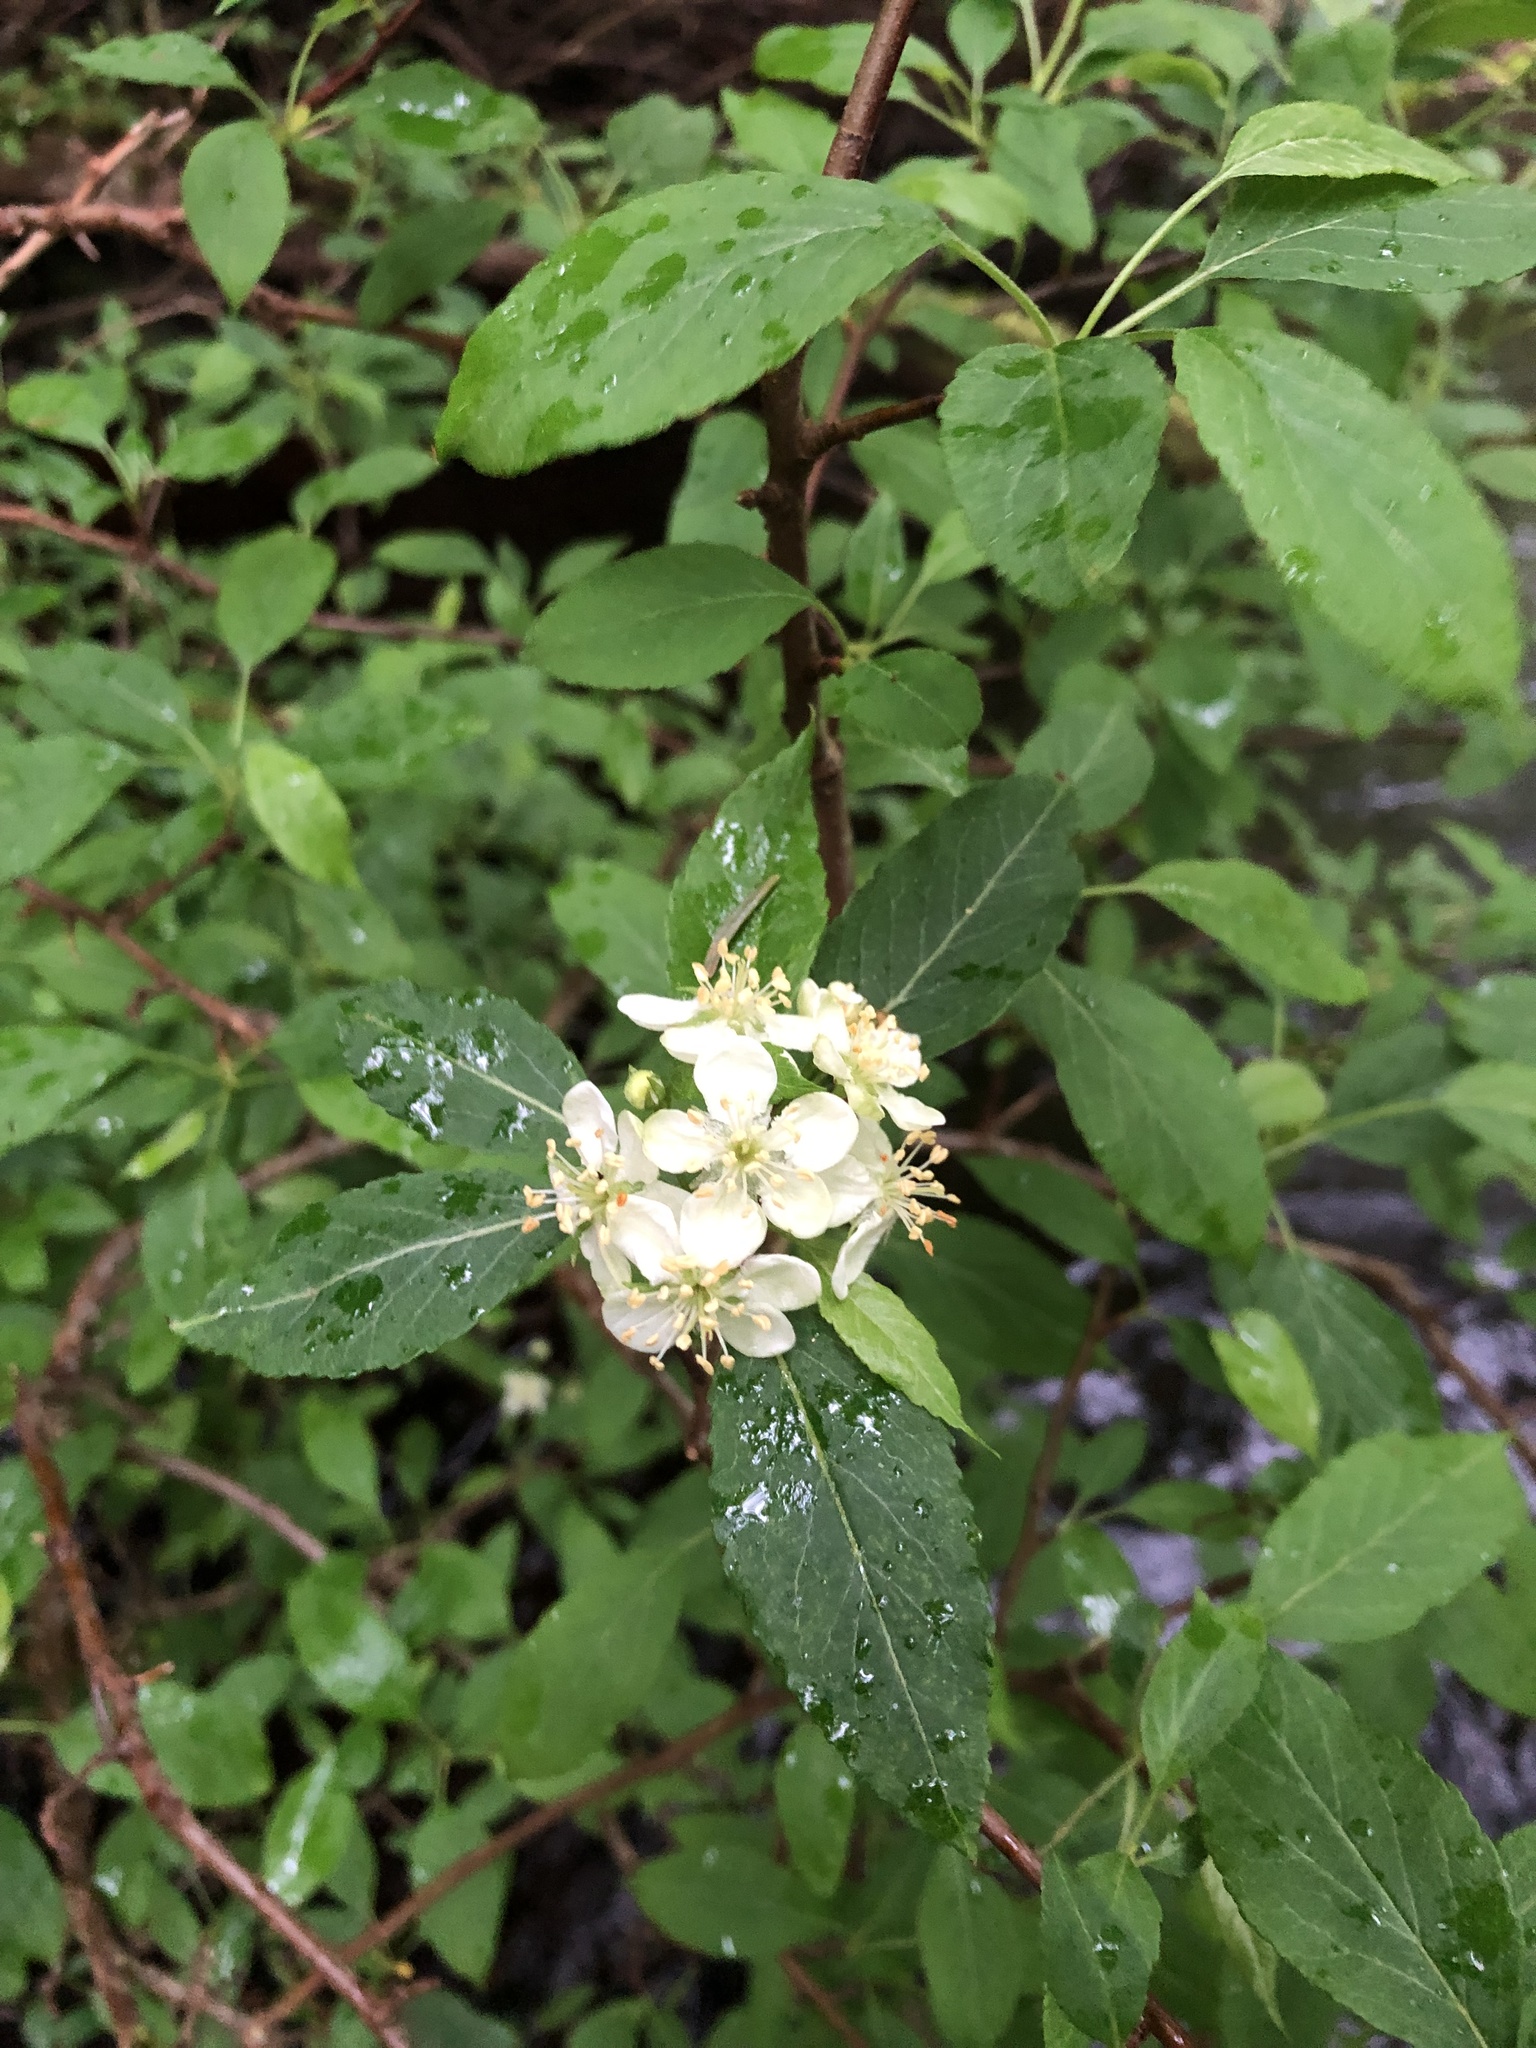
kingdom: Plantae
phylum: Tracheophyta
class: Magnoliopsida
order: Rosales
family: Rosaceae
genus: Malus
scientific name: Malus fusca
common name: Oregon crab apple
